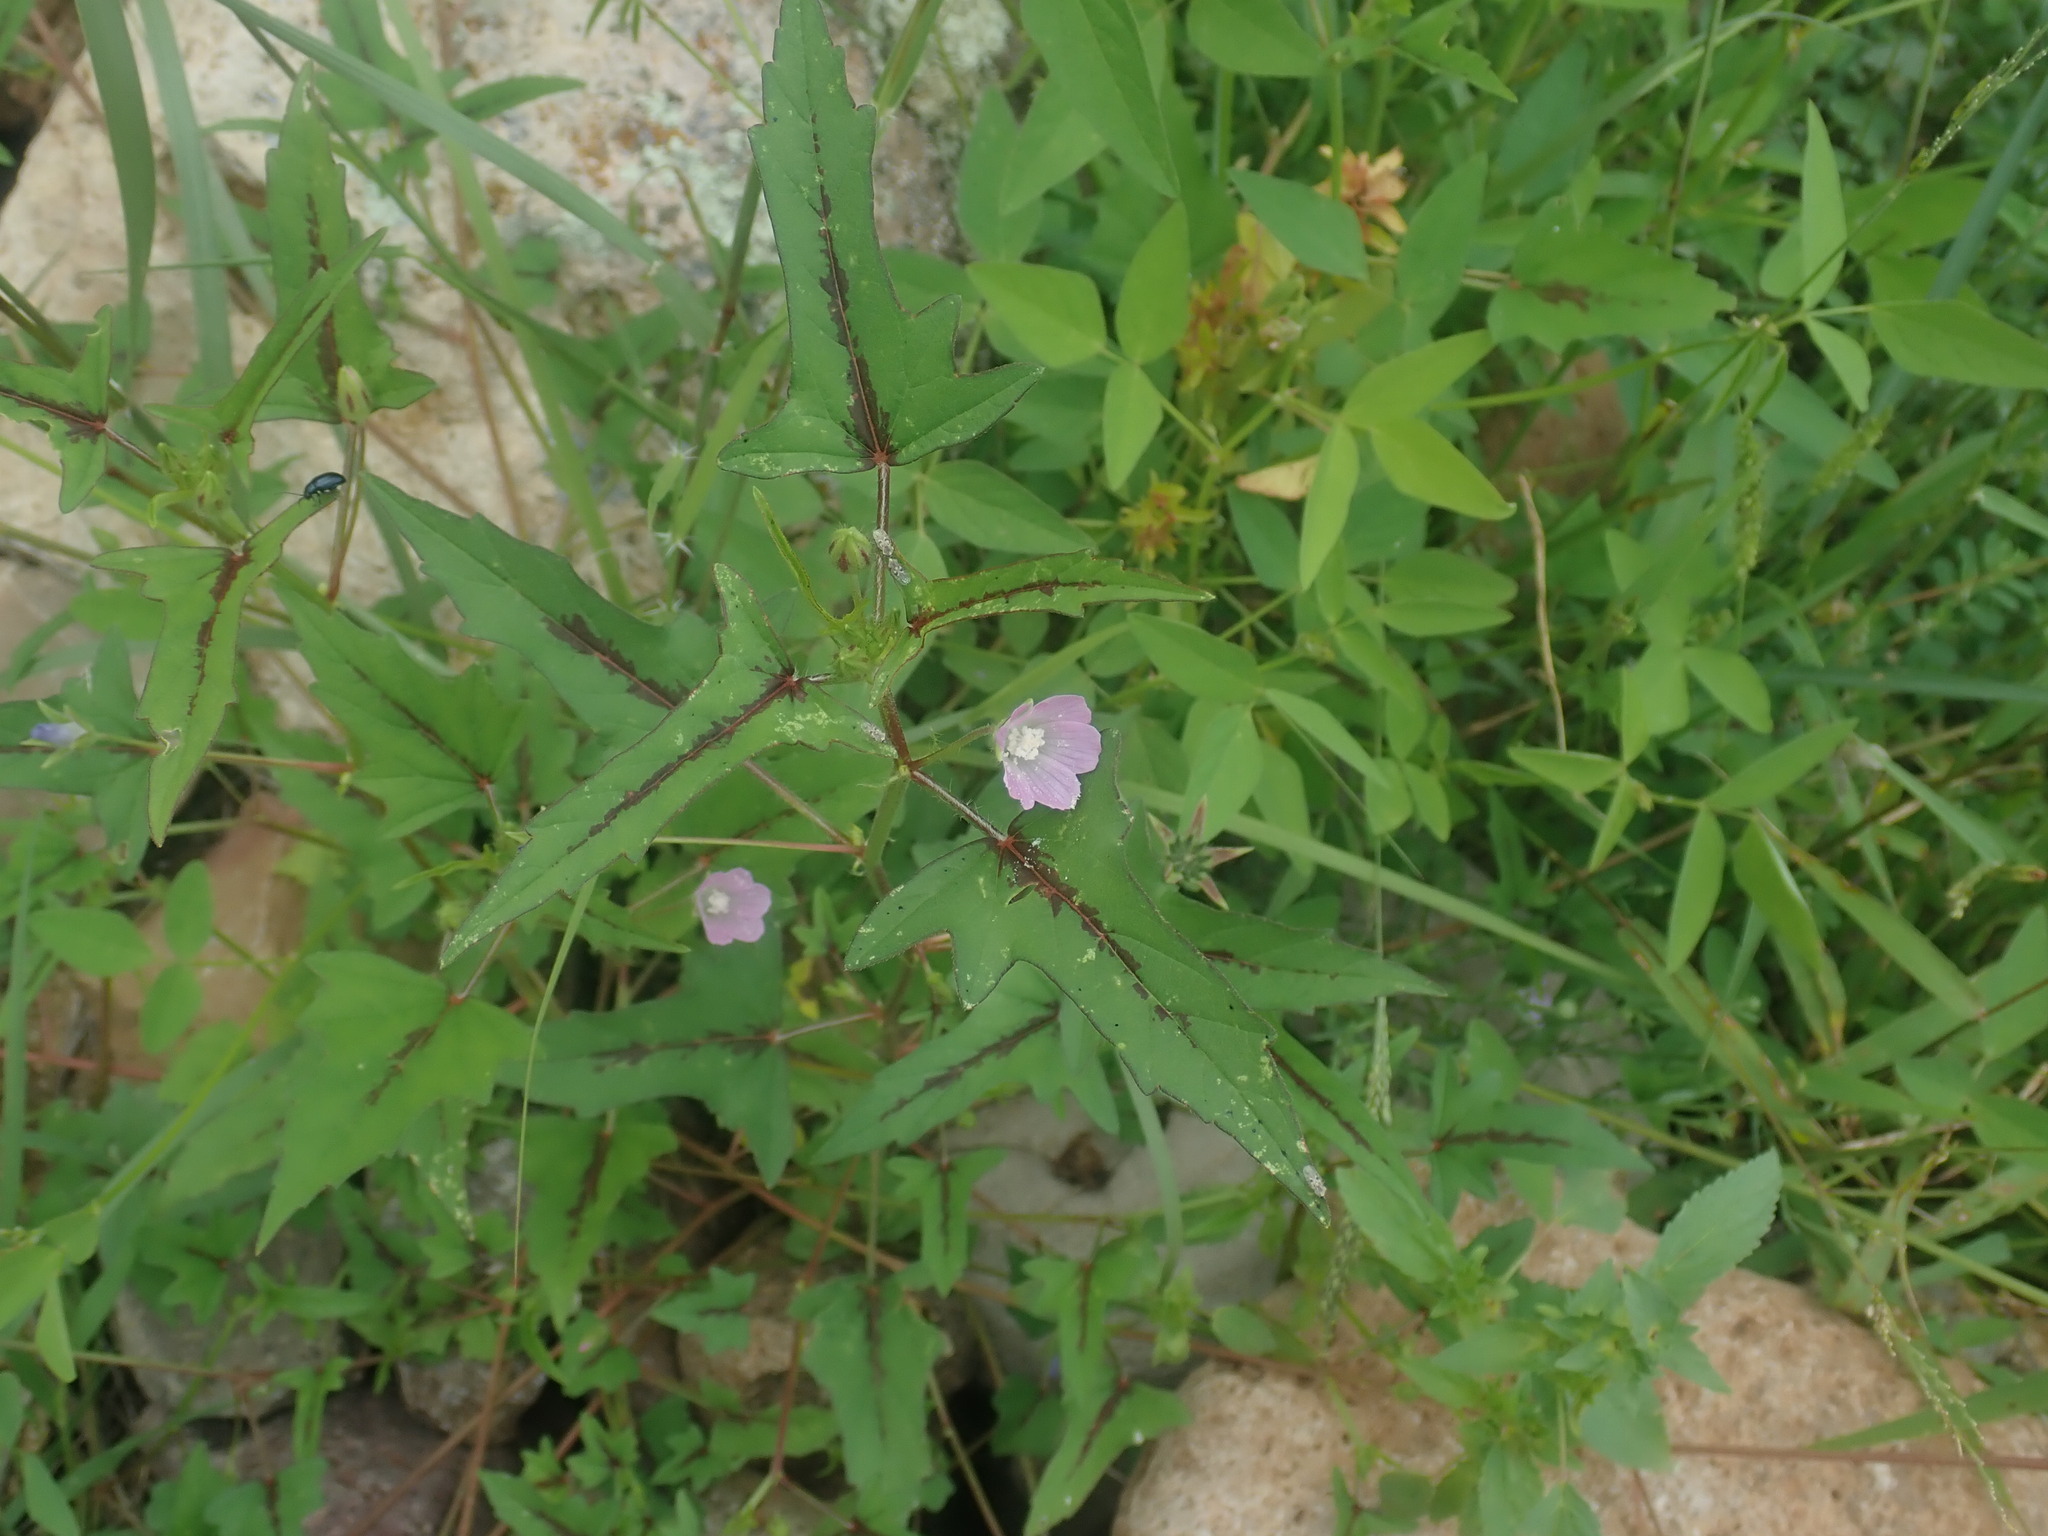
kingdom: Plantae
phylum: Tracheophyta
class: Magnoliopsida
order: Malvales
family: Malvaceae
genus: Anoda
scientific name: Anoda cristata
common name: Spurred anoda
